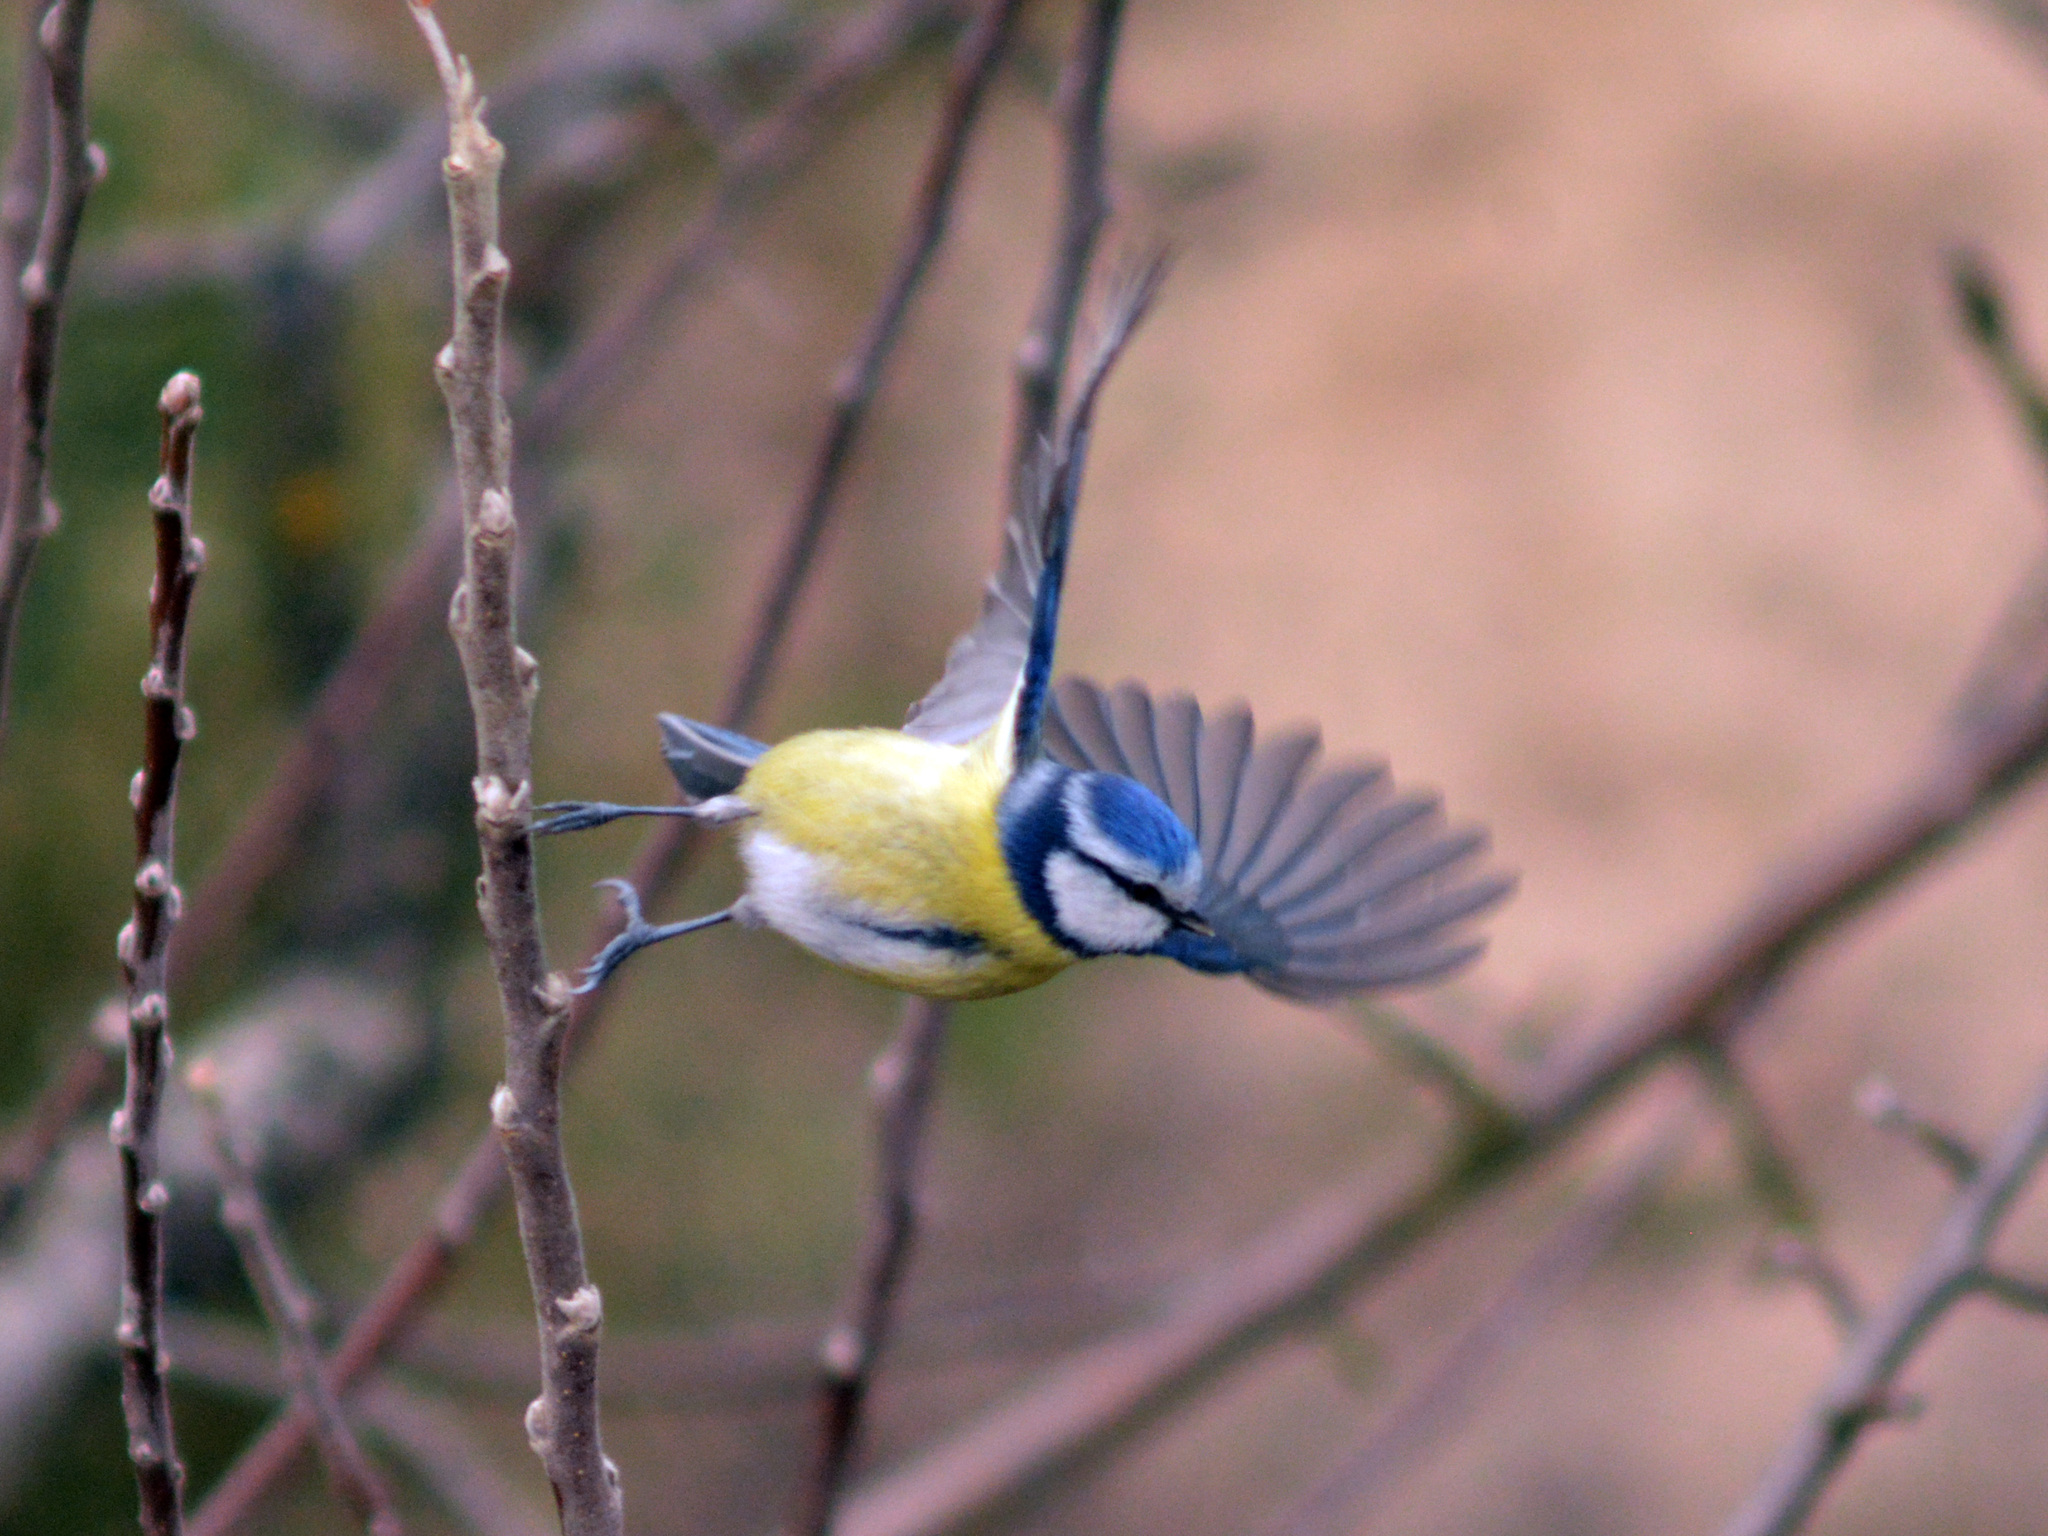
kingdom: Animalia
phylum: Chordata
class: Aves
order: Passeriformes
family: Paridae
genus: Cyanistes
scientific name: Cyanistes caeruleus
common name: Eurasian blue tit
